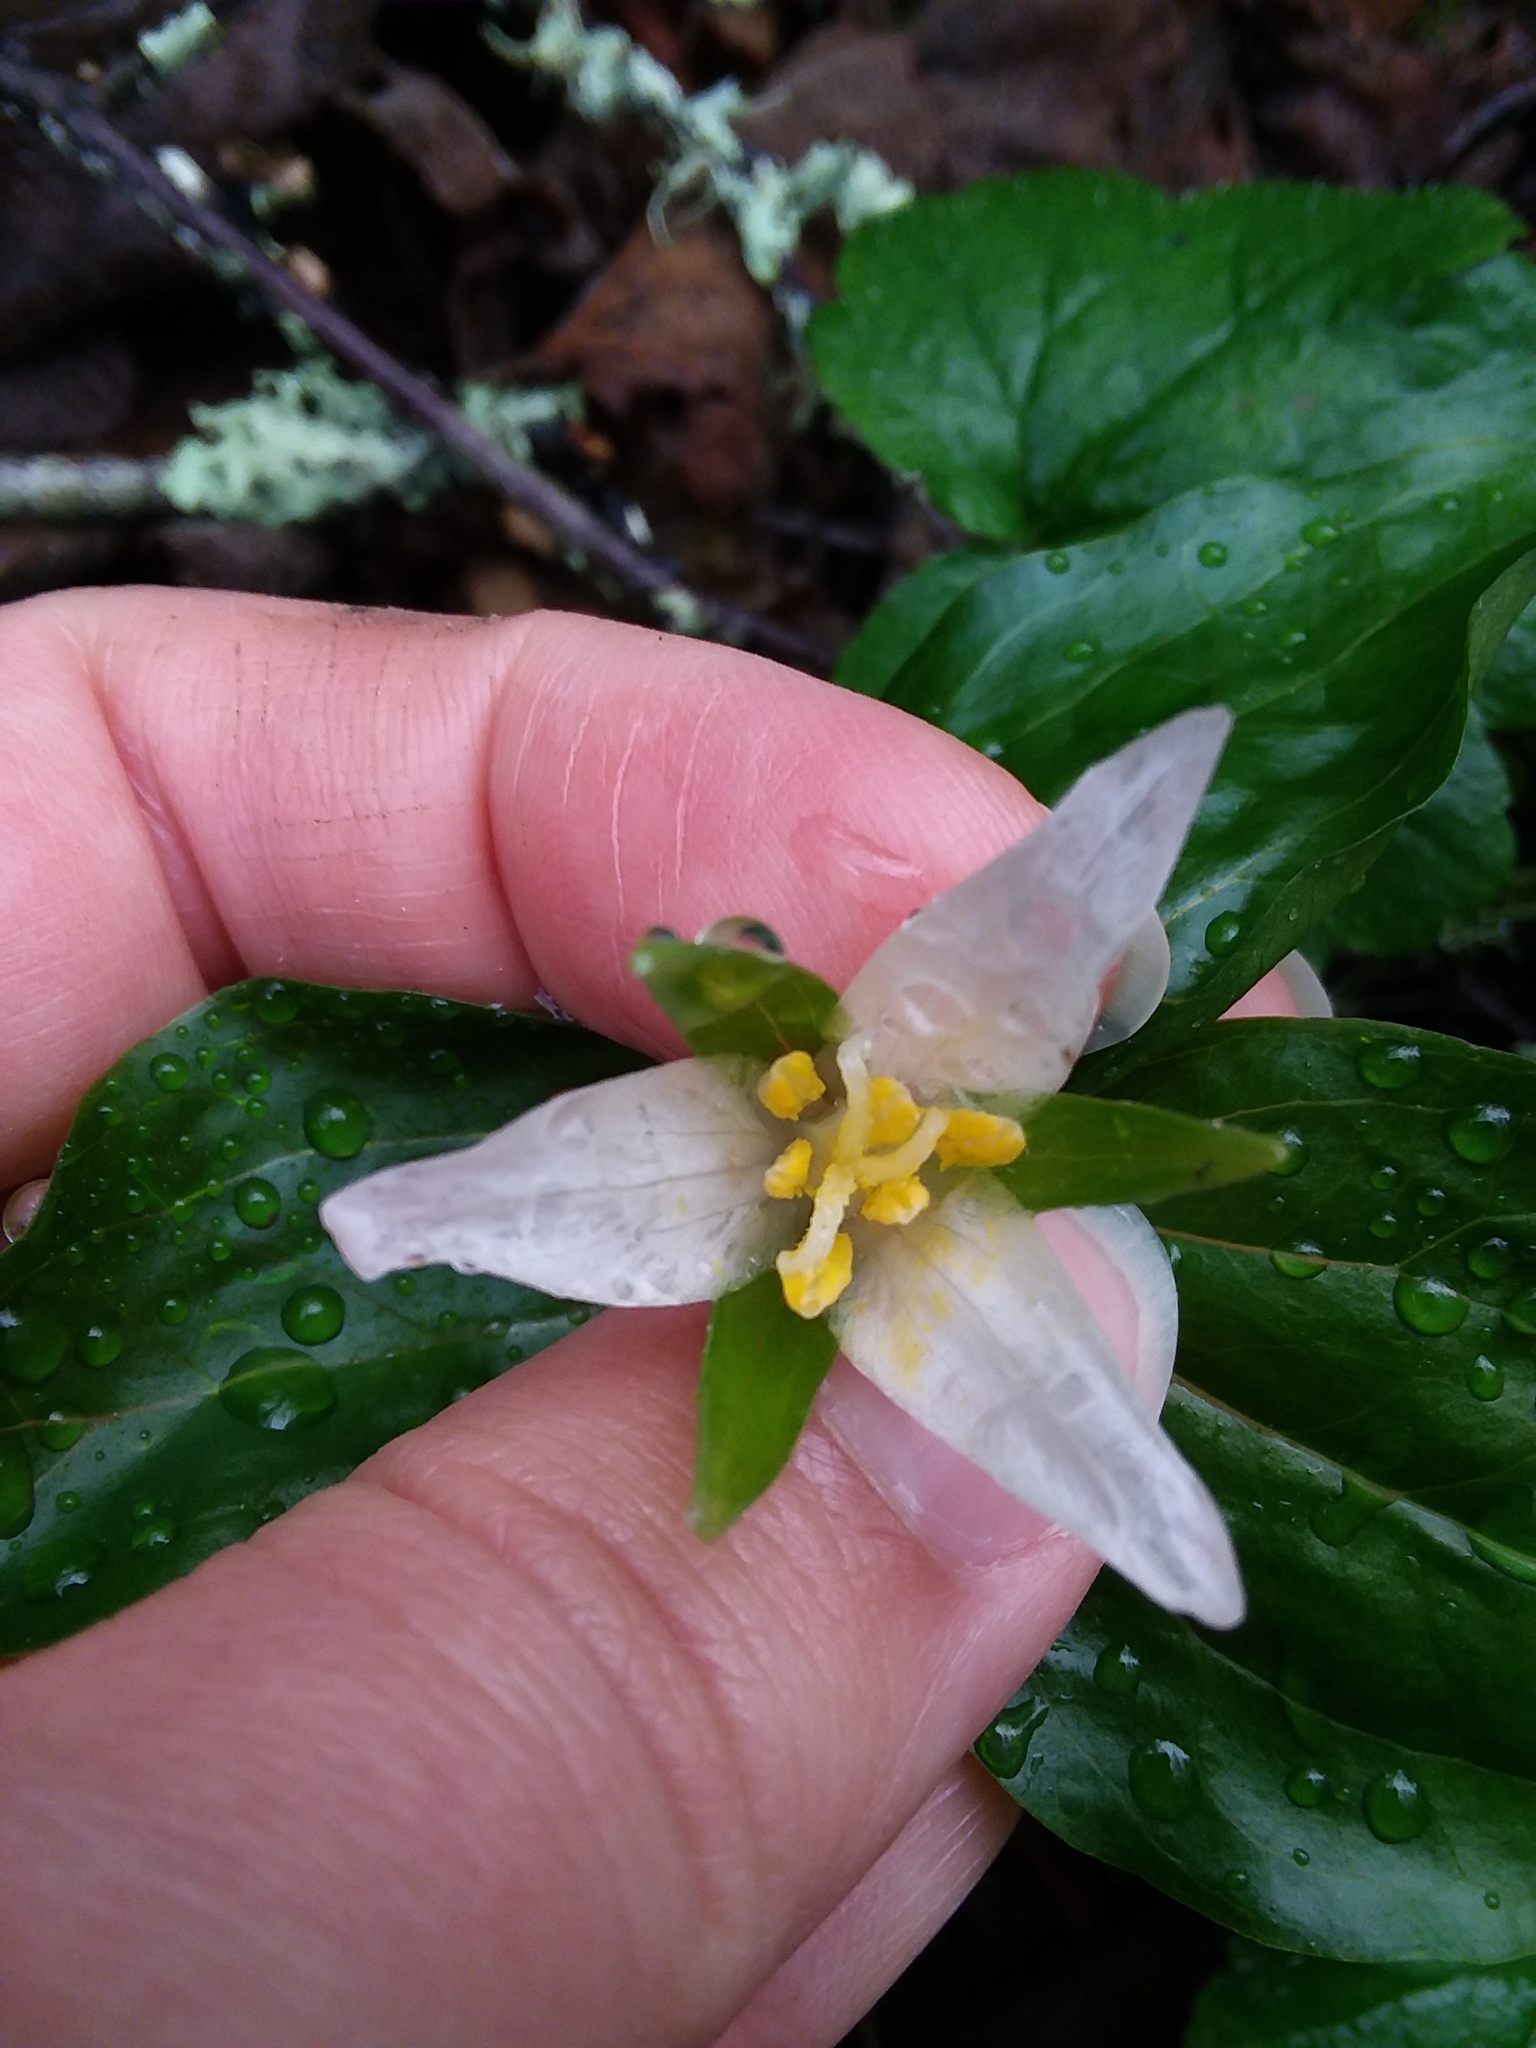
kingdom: Plantae
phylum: Tracheophyta
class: Liliopsida
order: Liliales
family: Melanthiaceae
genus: Trillium
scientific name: Trillium ovatum
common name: Pacific trillium
